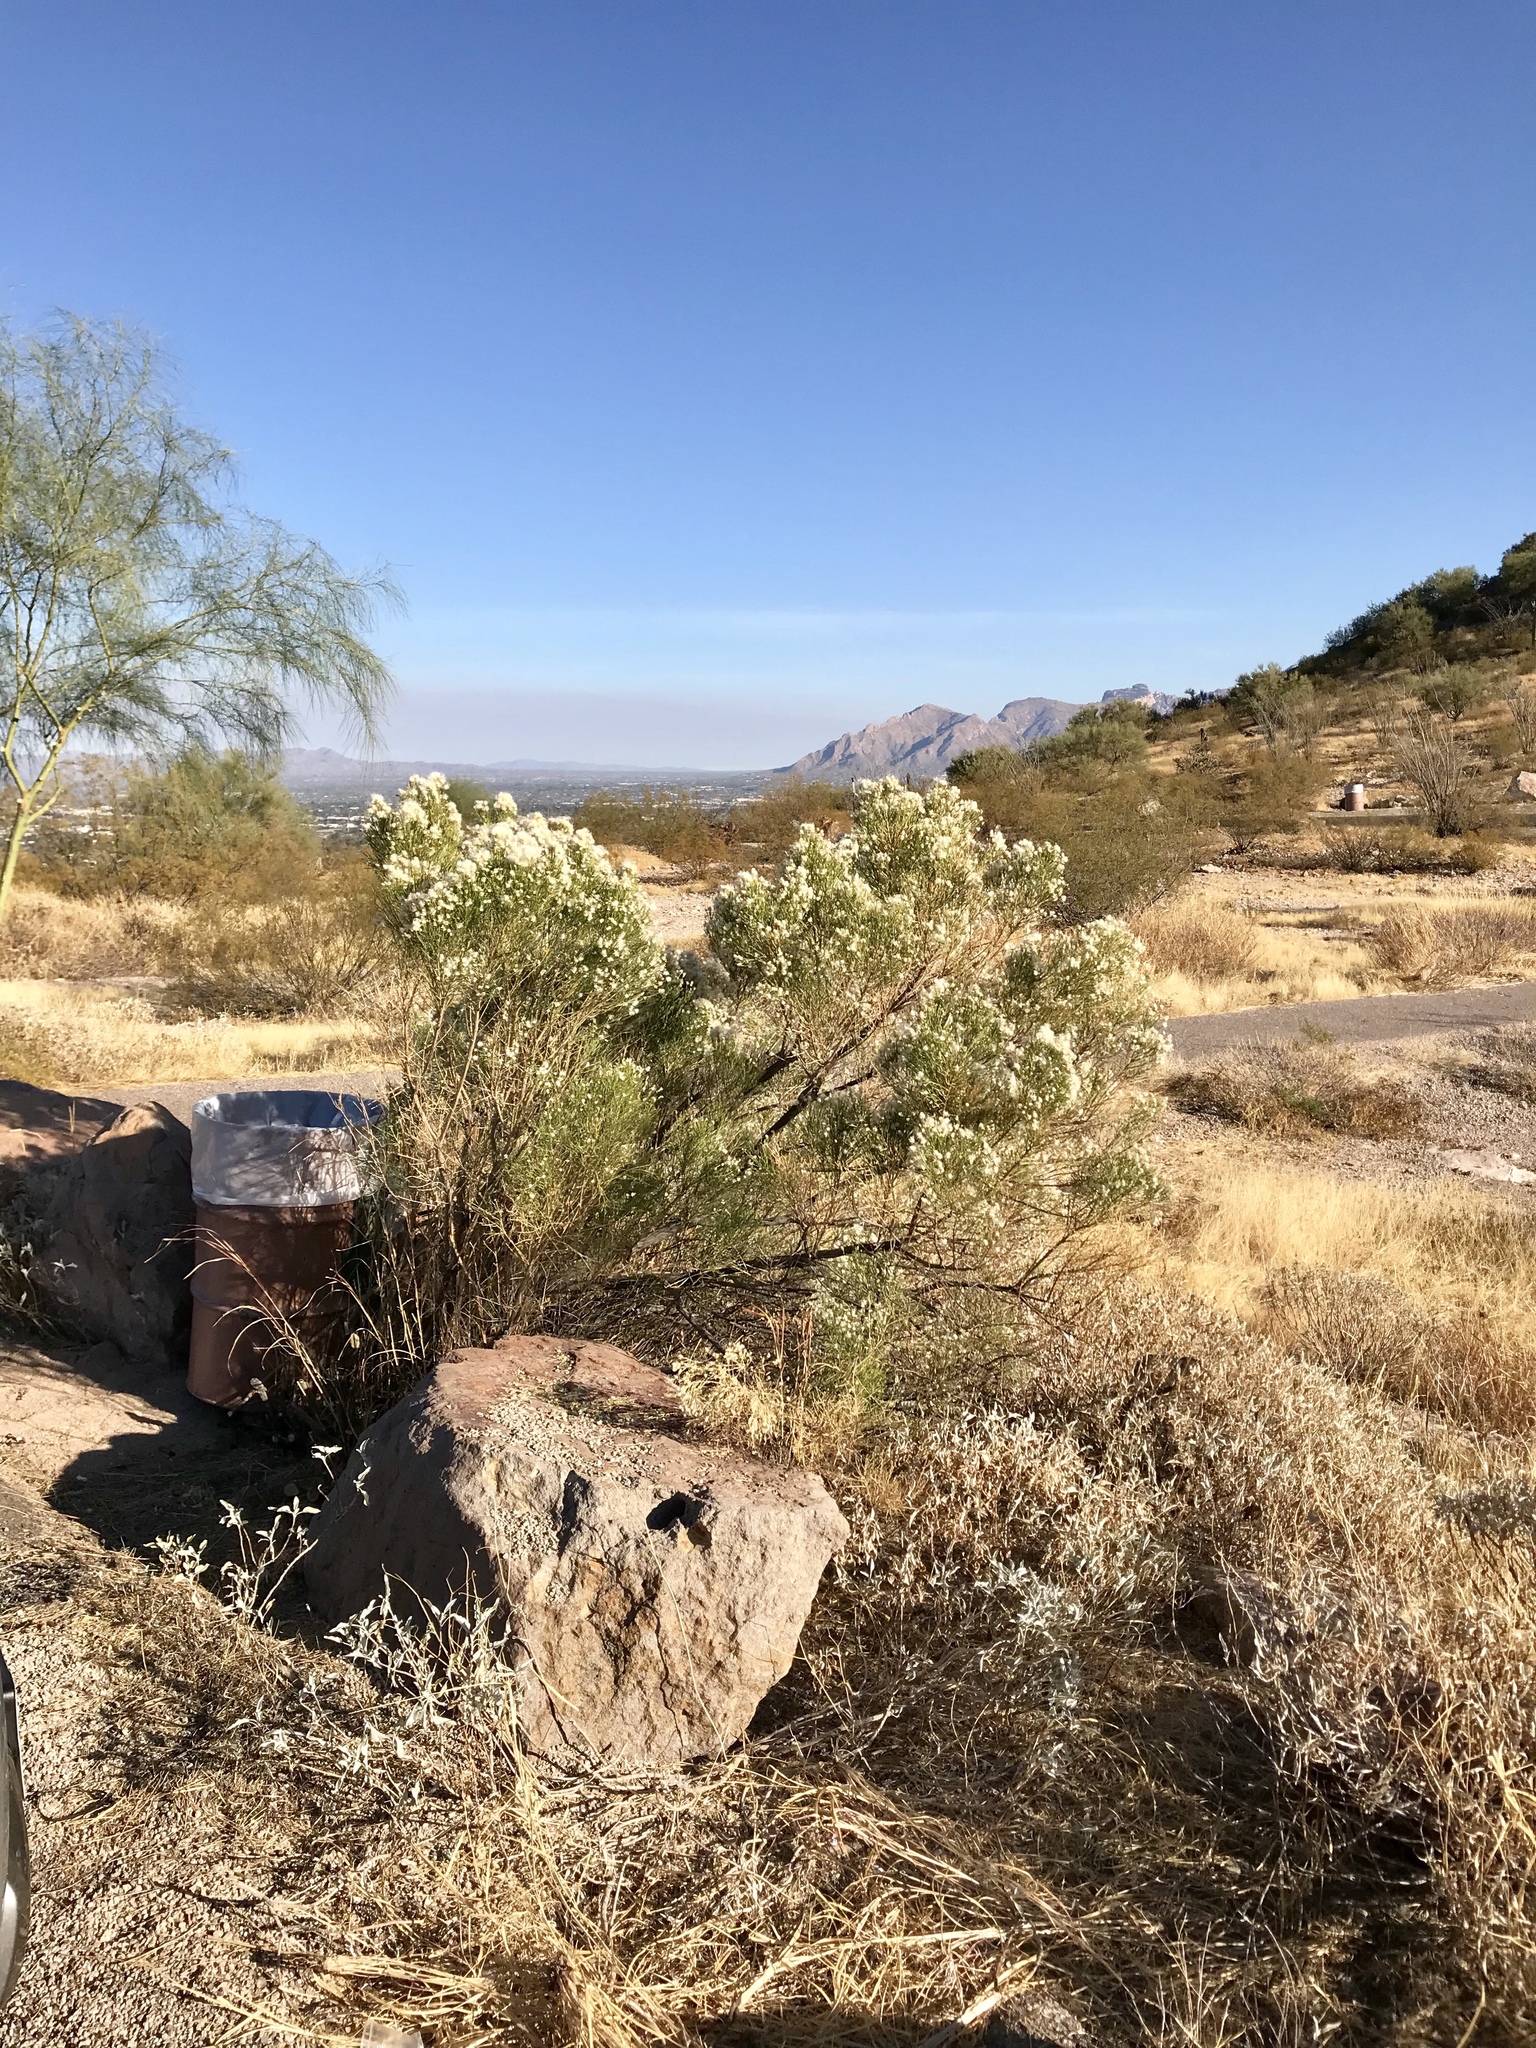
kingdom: Plantae
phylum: Tracheophyta
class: Magnoliopsida
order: Asterales
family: Asteraceae
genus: Baccharis
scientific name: Baccharis sarothroides
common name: Desert-broom
